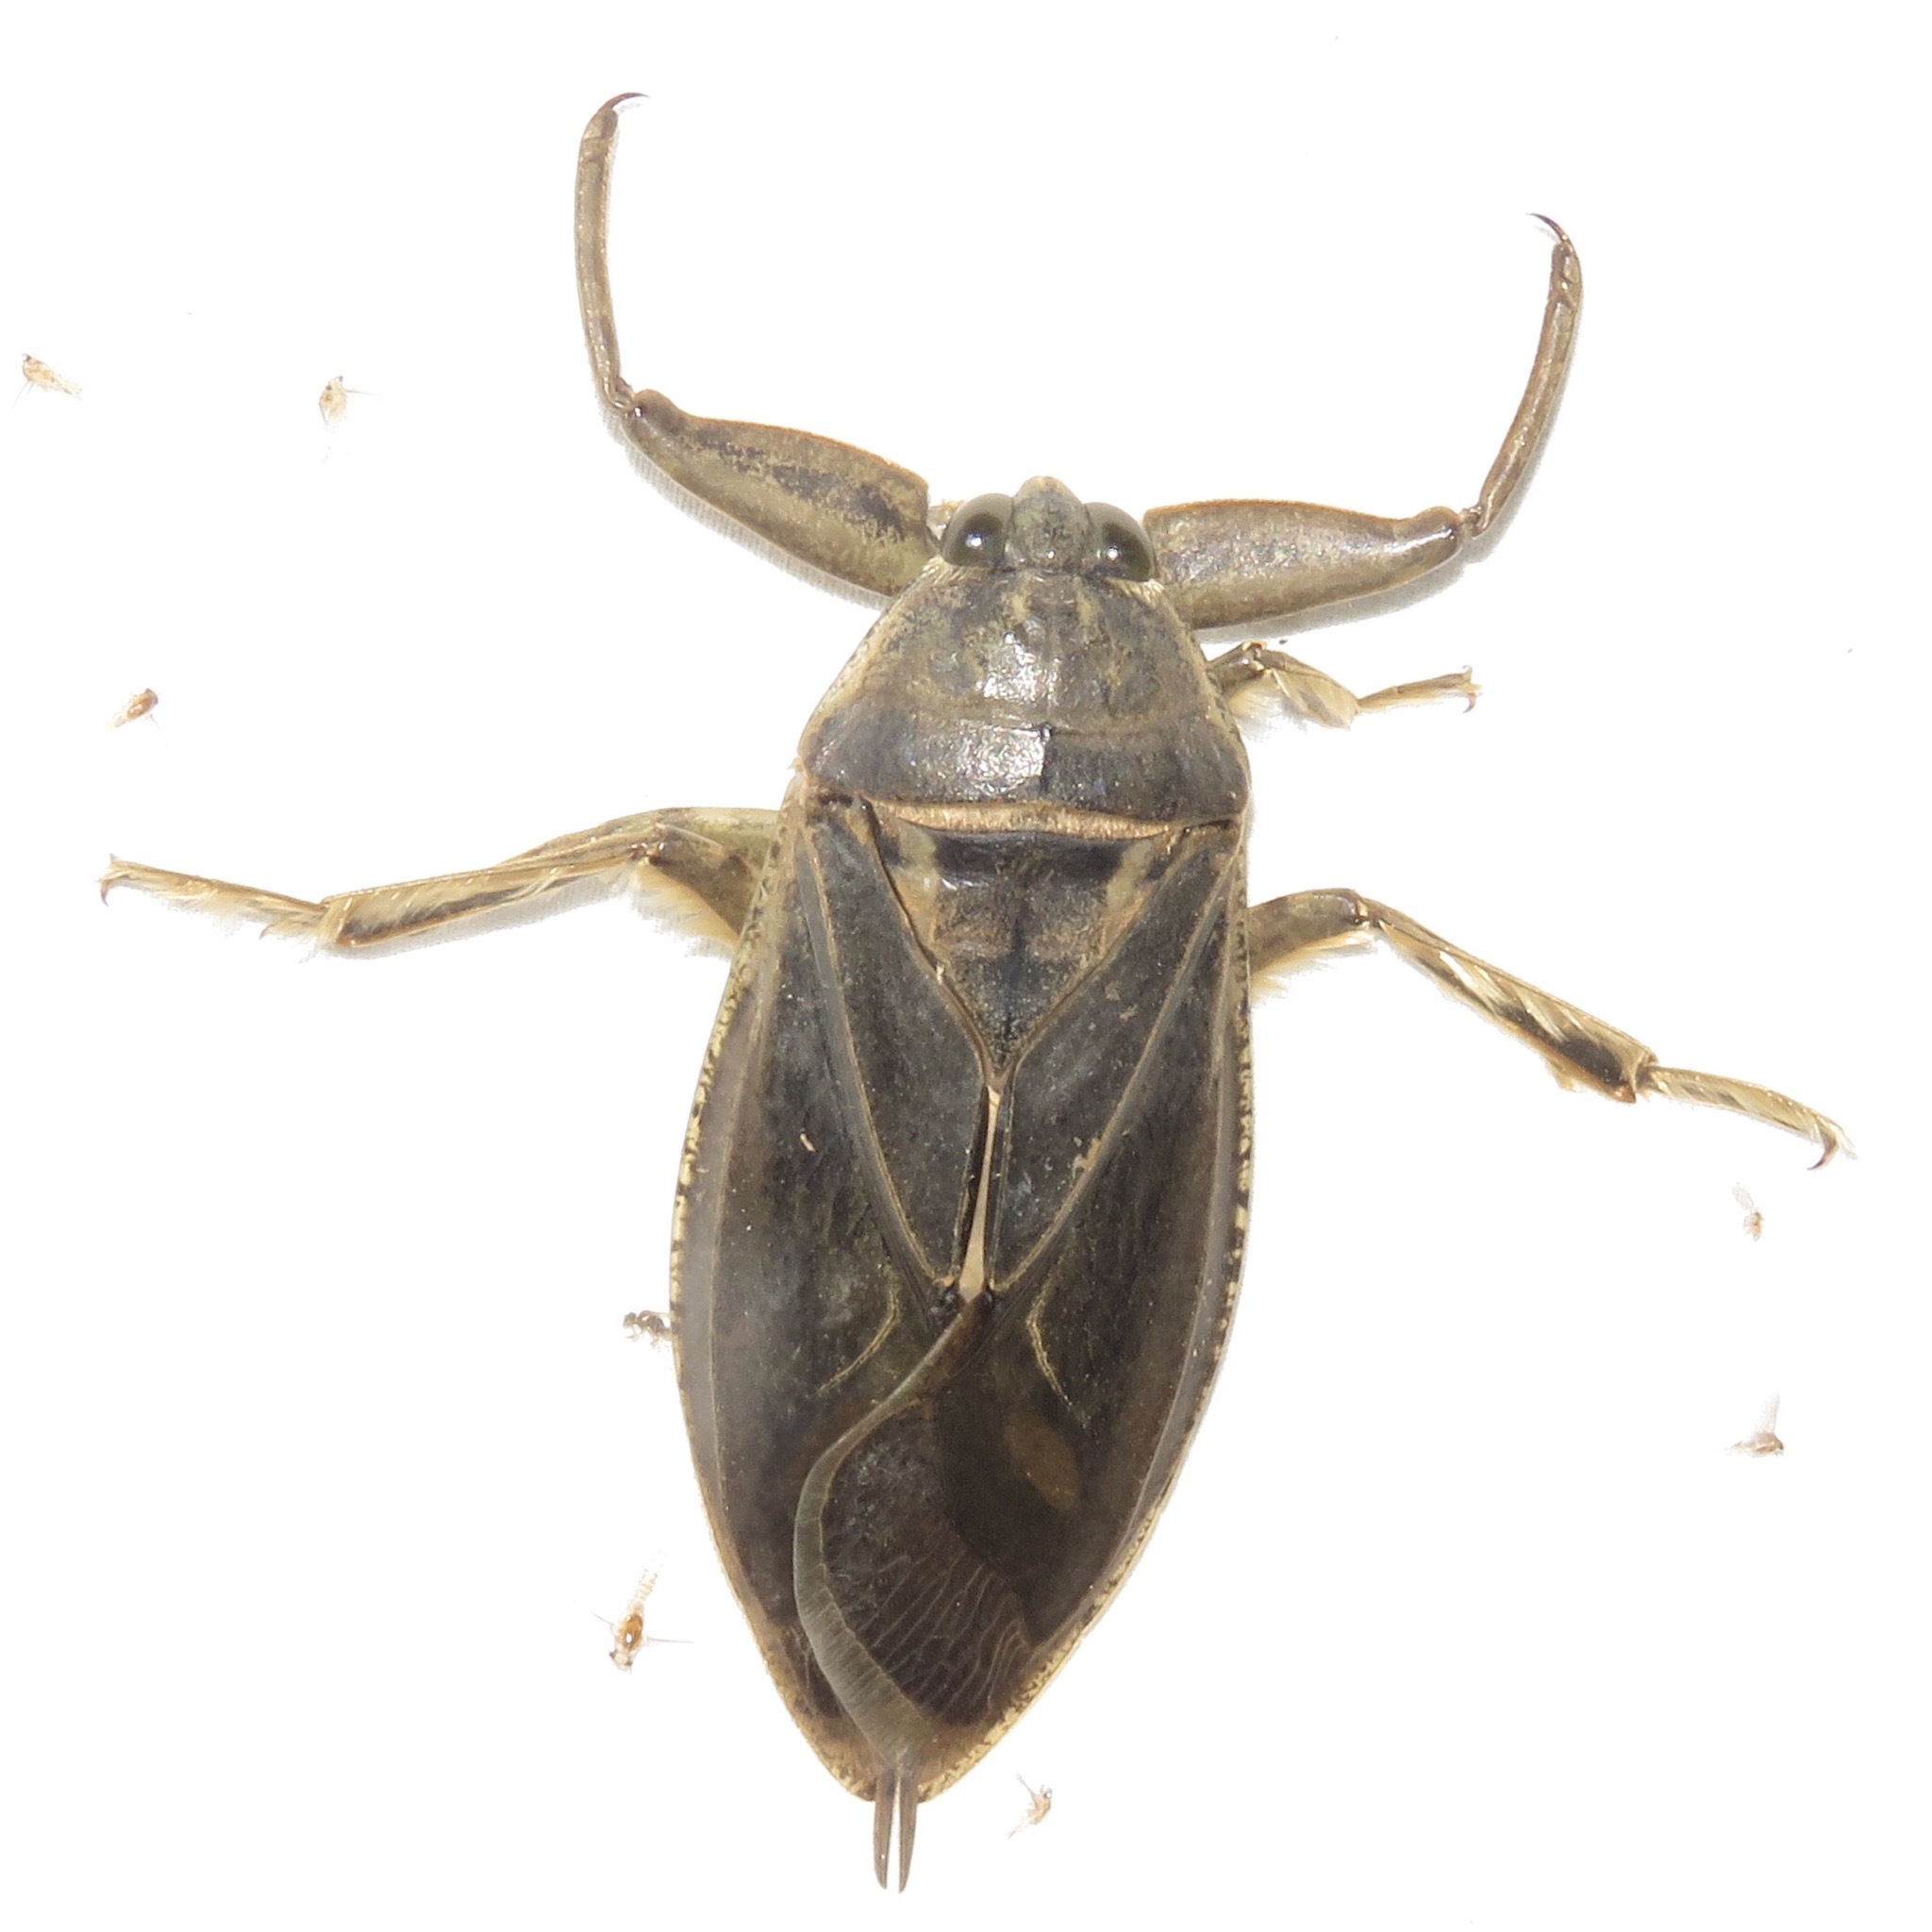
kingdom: Animalia
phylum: Arthropoda
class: Insecta
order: Hemiptera
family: Belostomatidae
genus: Lethocerus
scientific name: Lethocerus americanus
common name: Giant water bug
